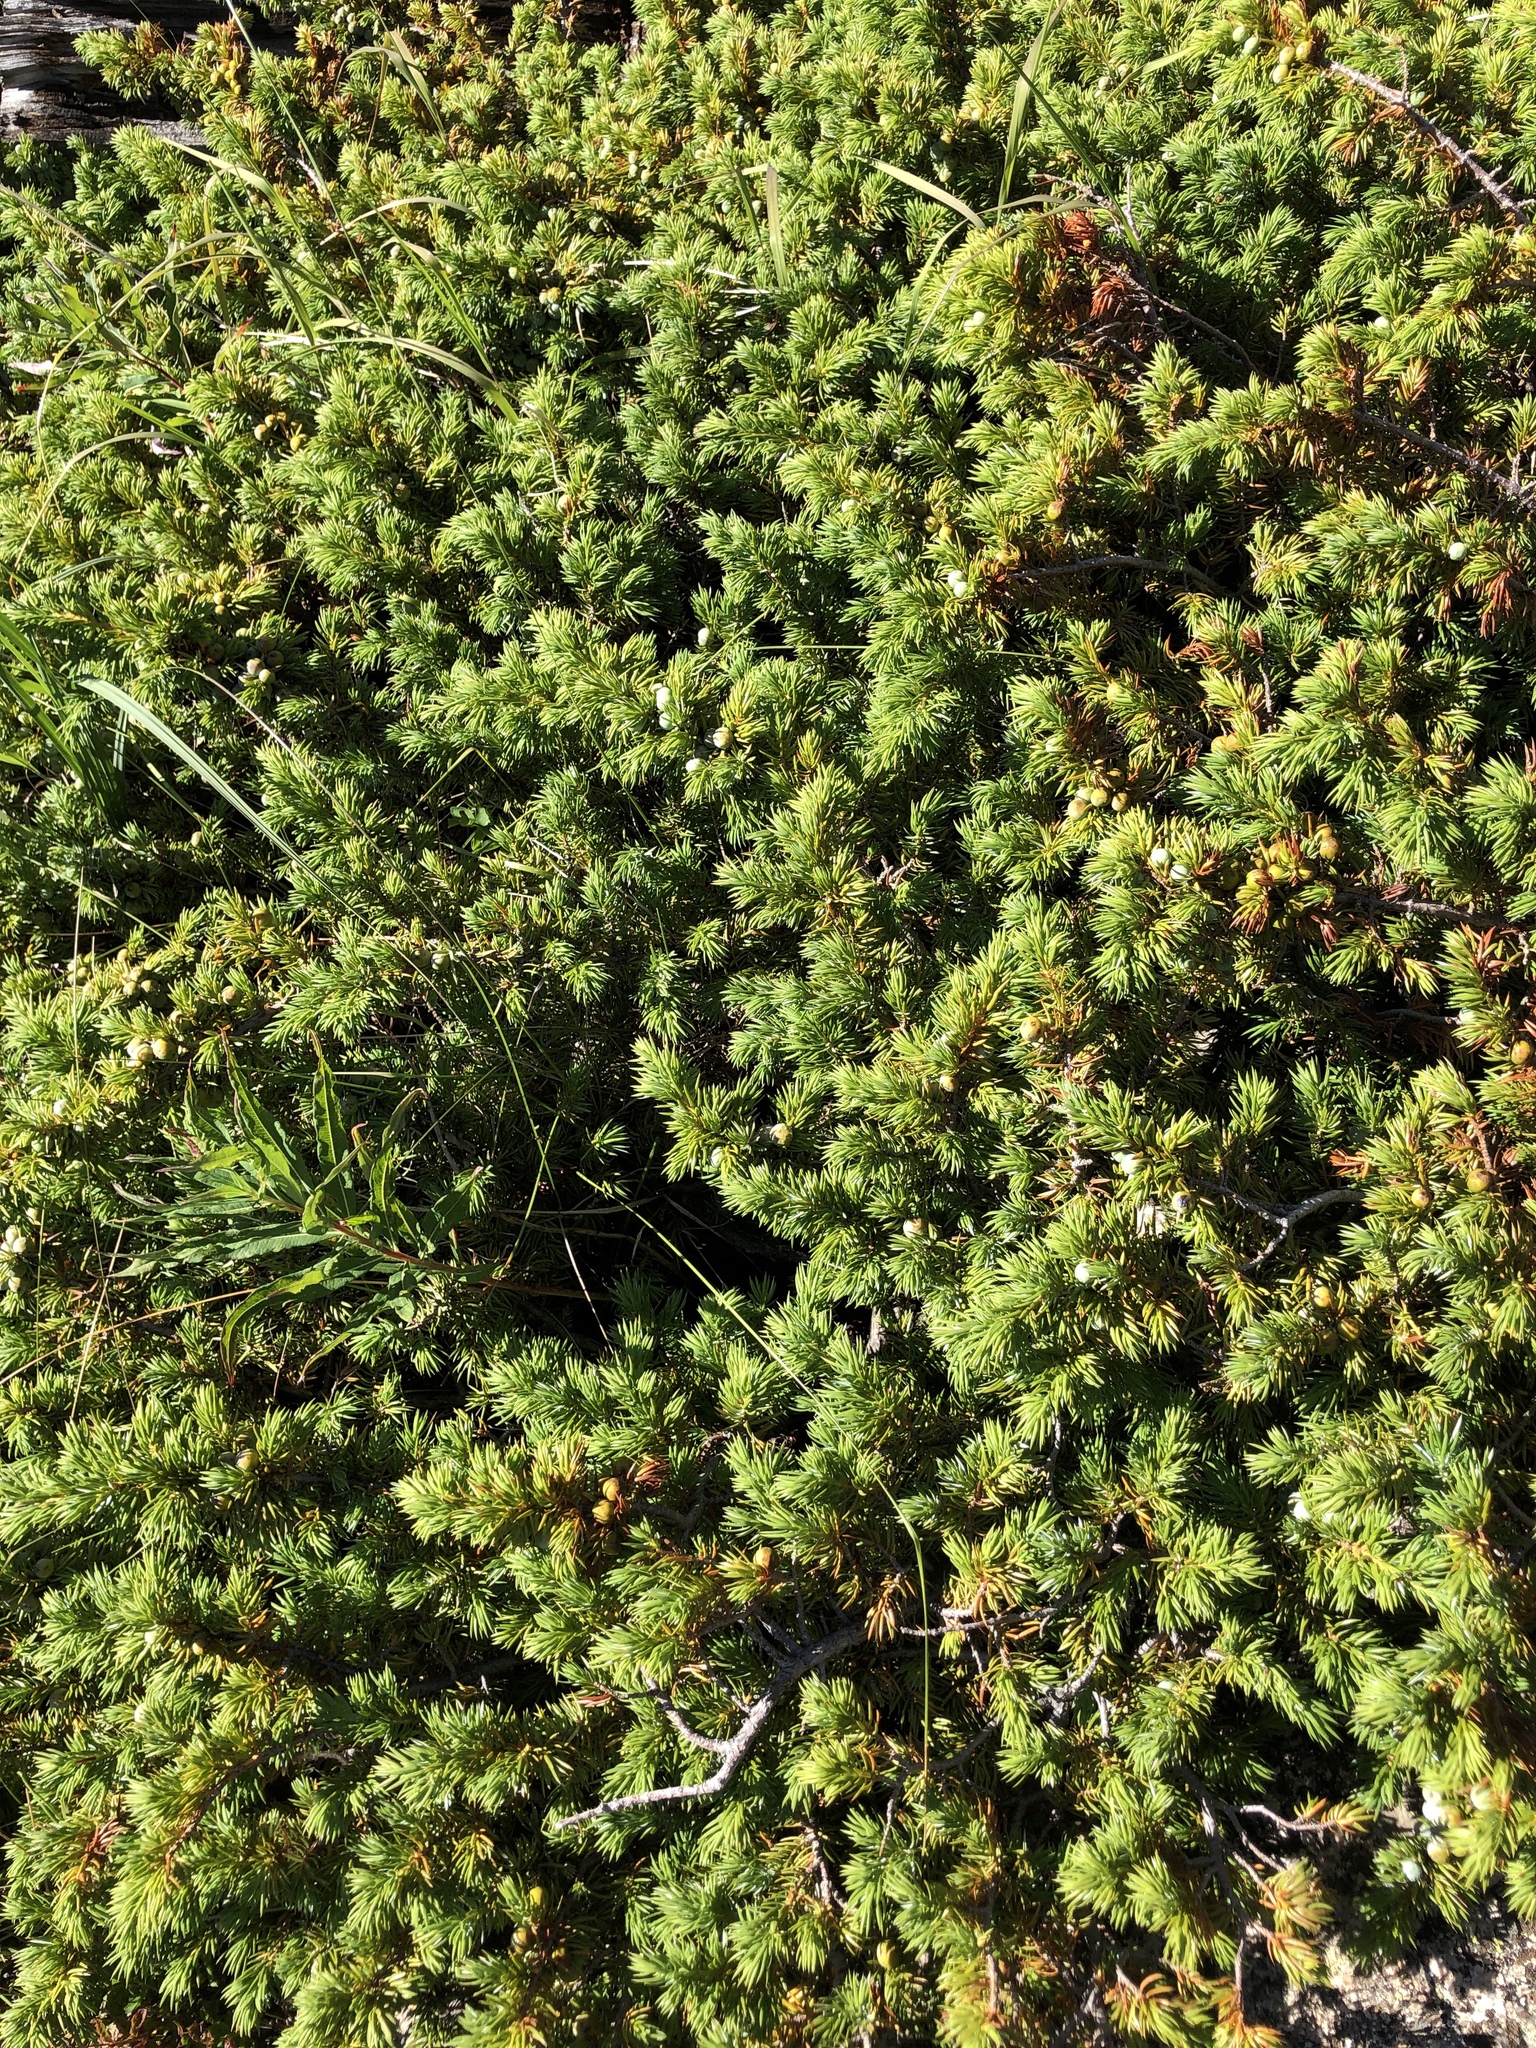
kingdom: Plantae
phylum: Tracheophyta
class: Pinopsida
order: Pinales
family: Cupressaceae
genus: Juniperus
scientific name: Juniperus communis
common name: Common juniper
